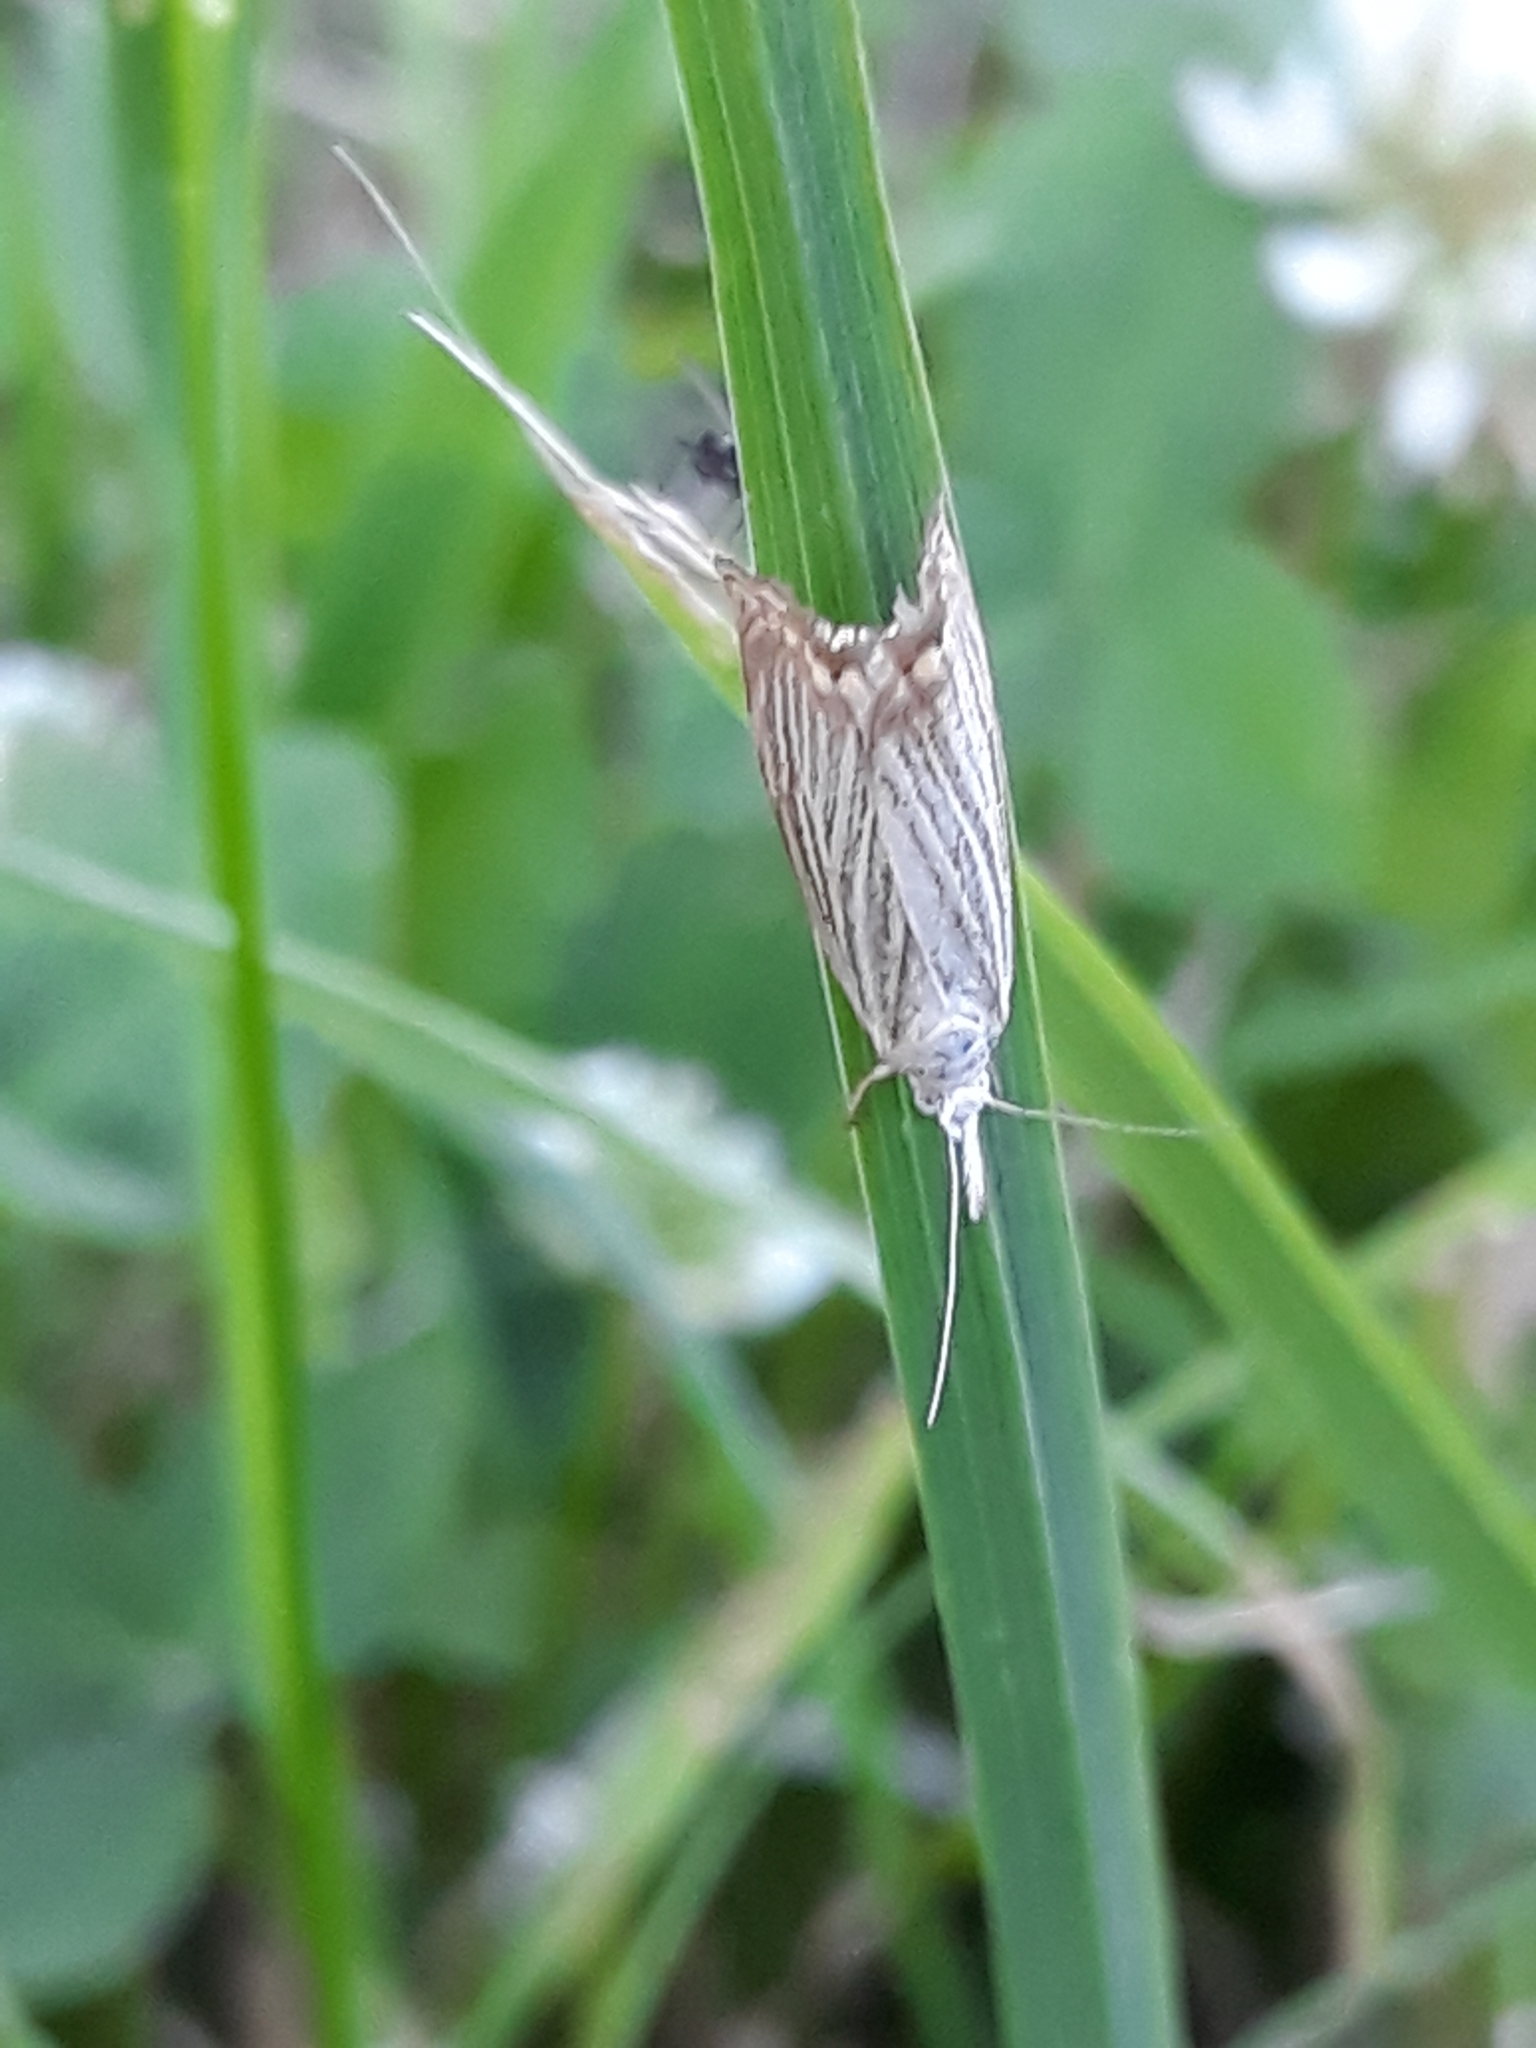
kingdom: Animalia
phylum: Arthropoda
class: Insecta
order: Lepidoptera
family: Crambidae
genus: Crambus
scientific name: Crambus perlellus
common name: Yellow satin veneer
